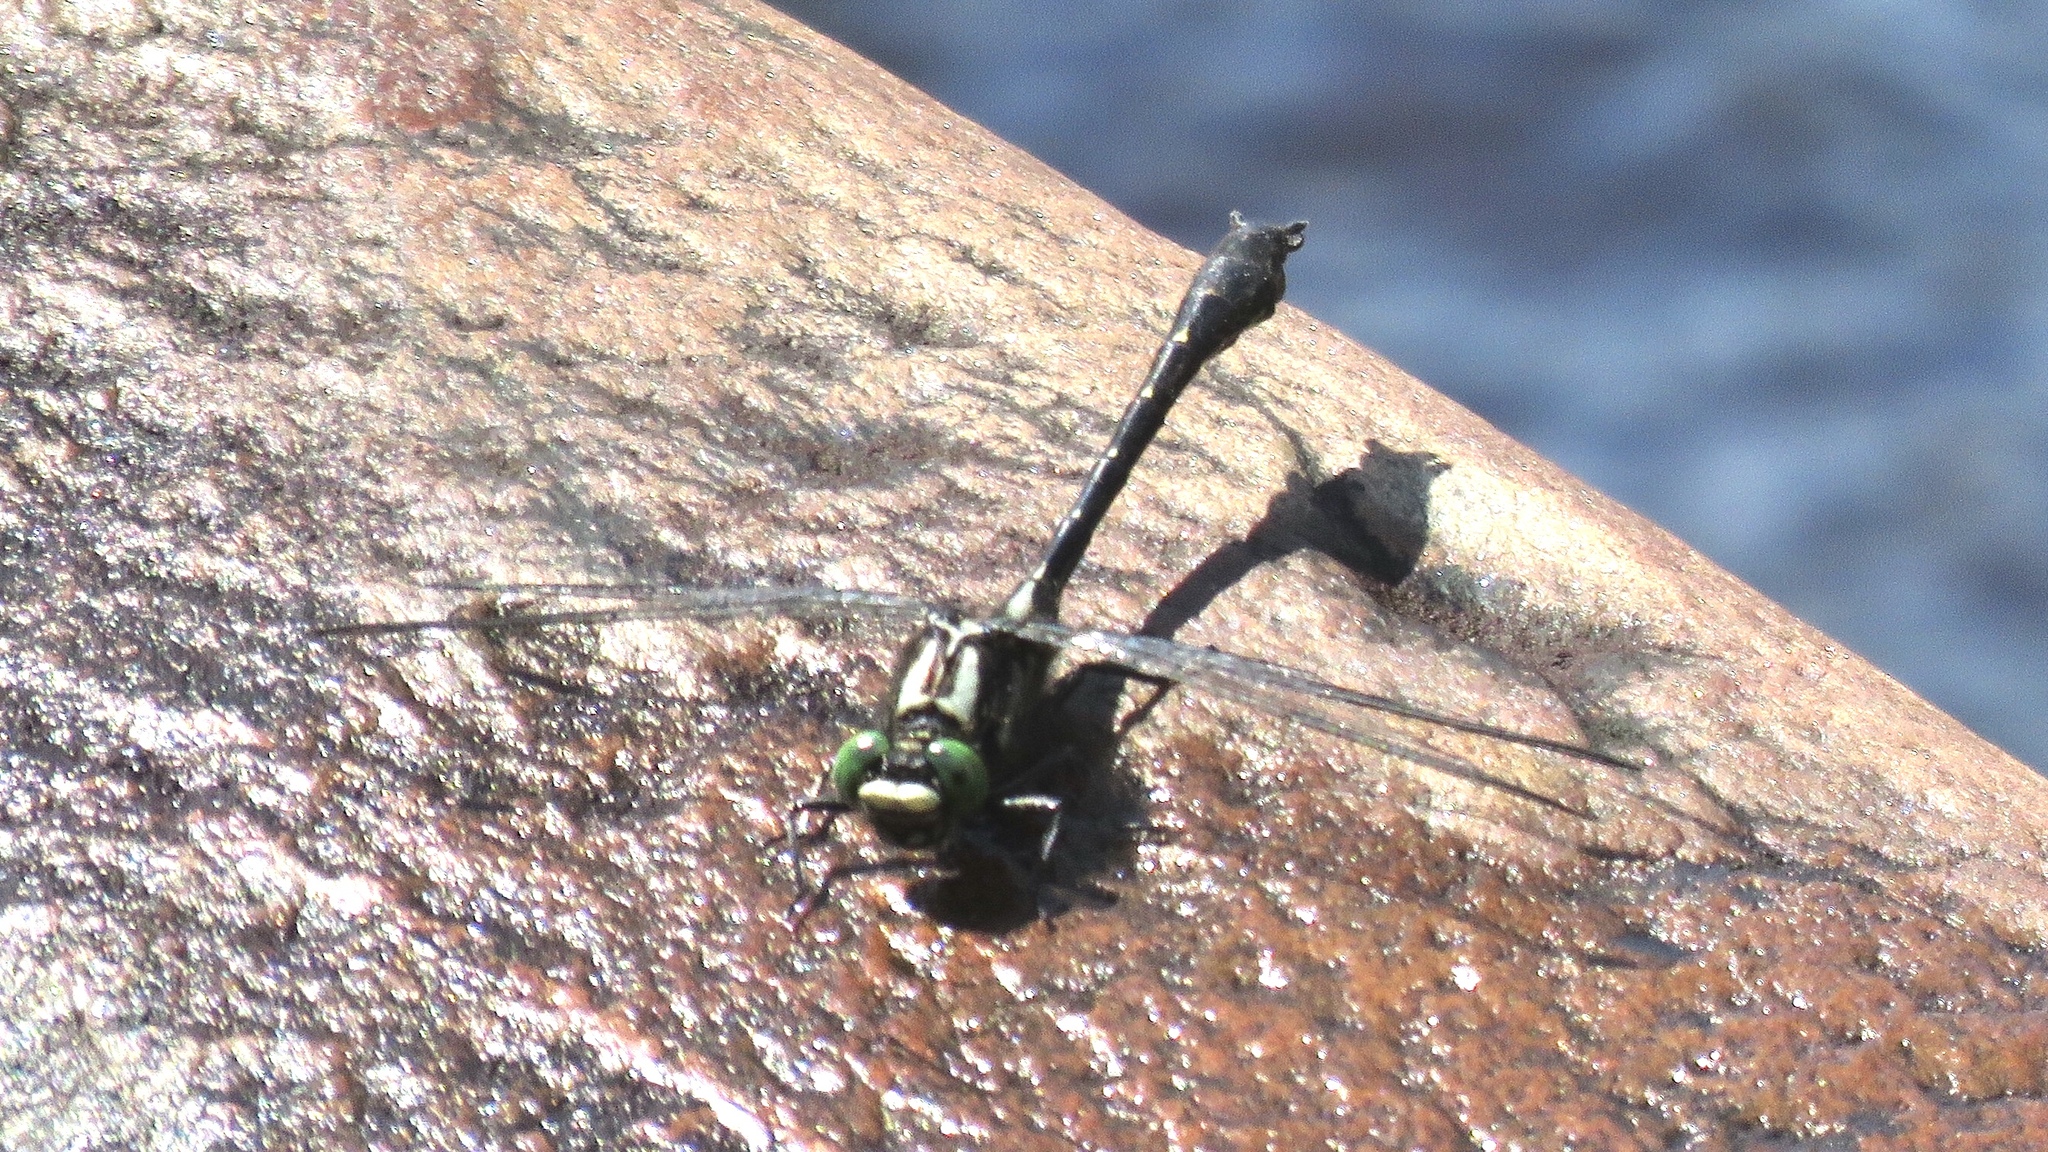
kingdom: Animalia
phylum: Arthropoda
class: Insecta
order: Odonata
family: Gomphidae
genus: Hylogomphus
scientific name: Hylogomphus adelphus
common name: Mustached clubtail
